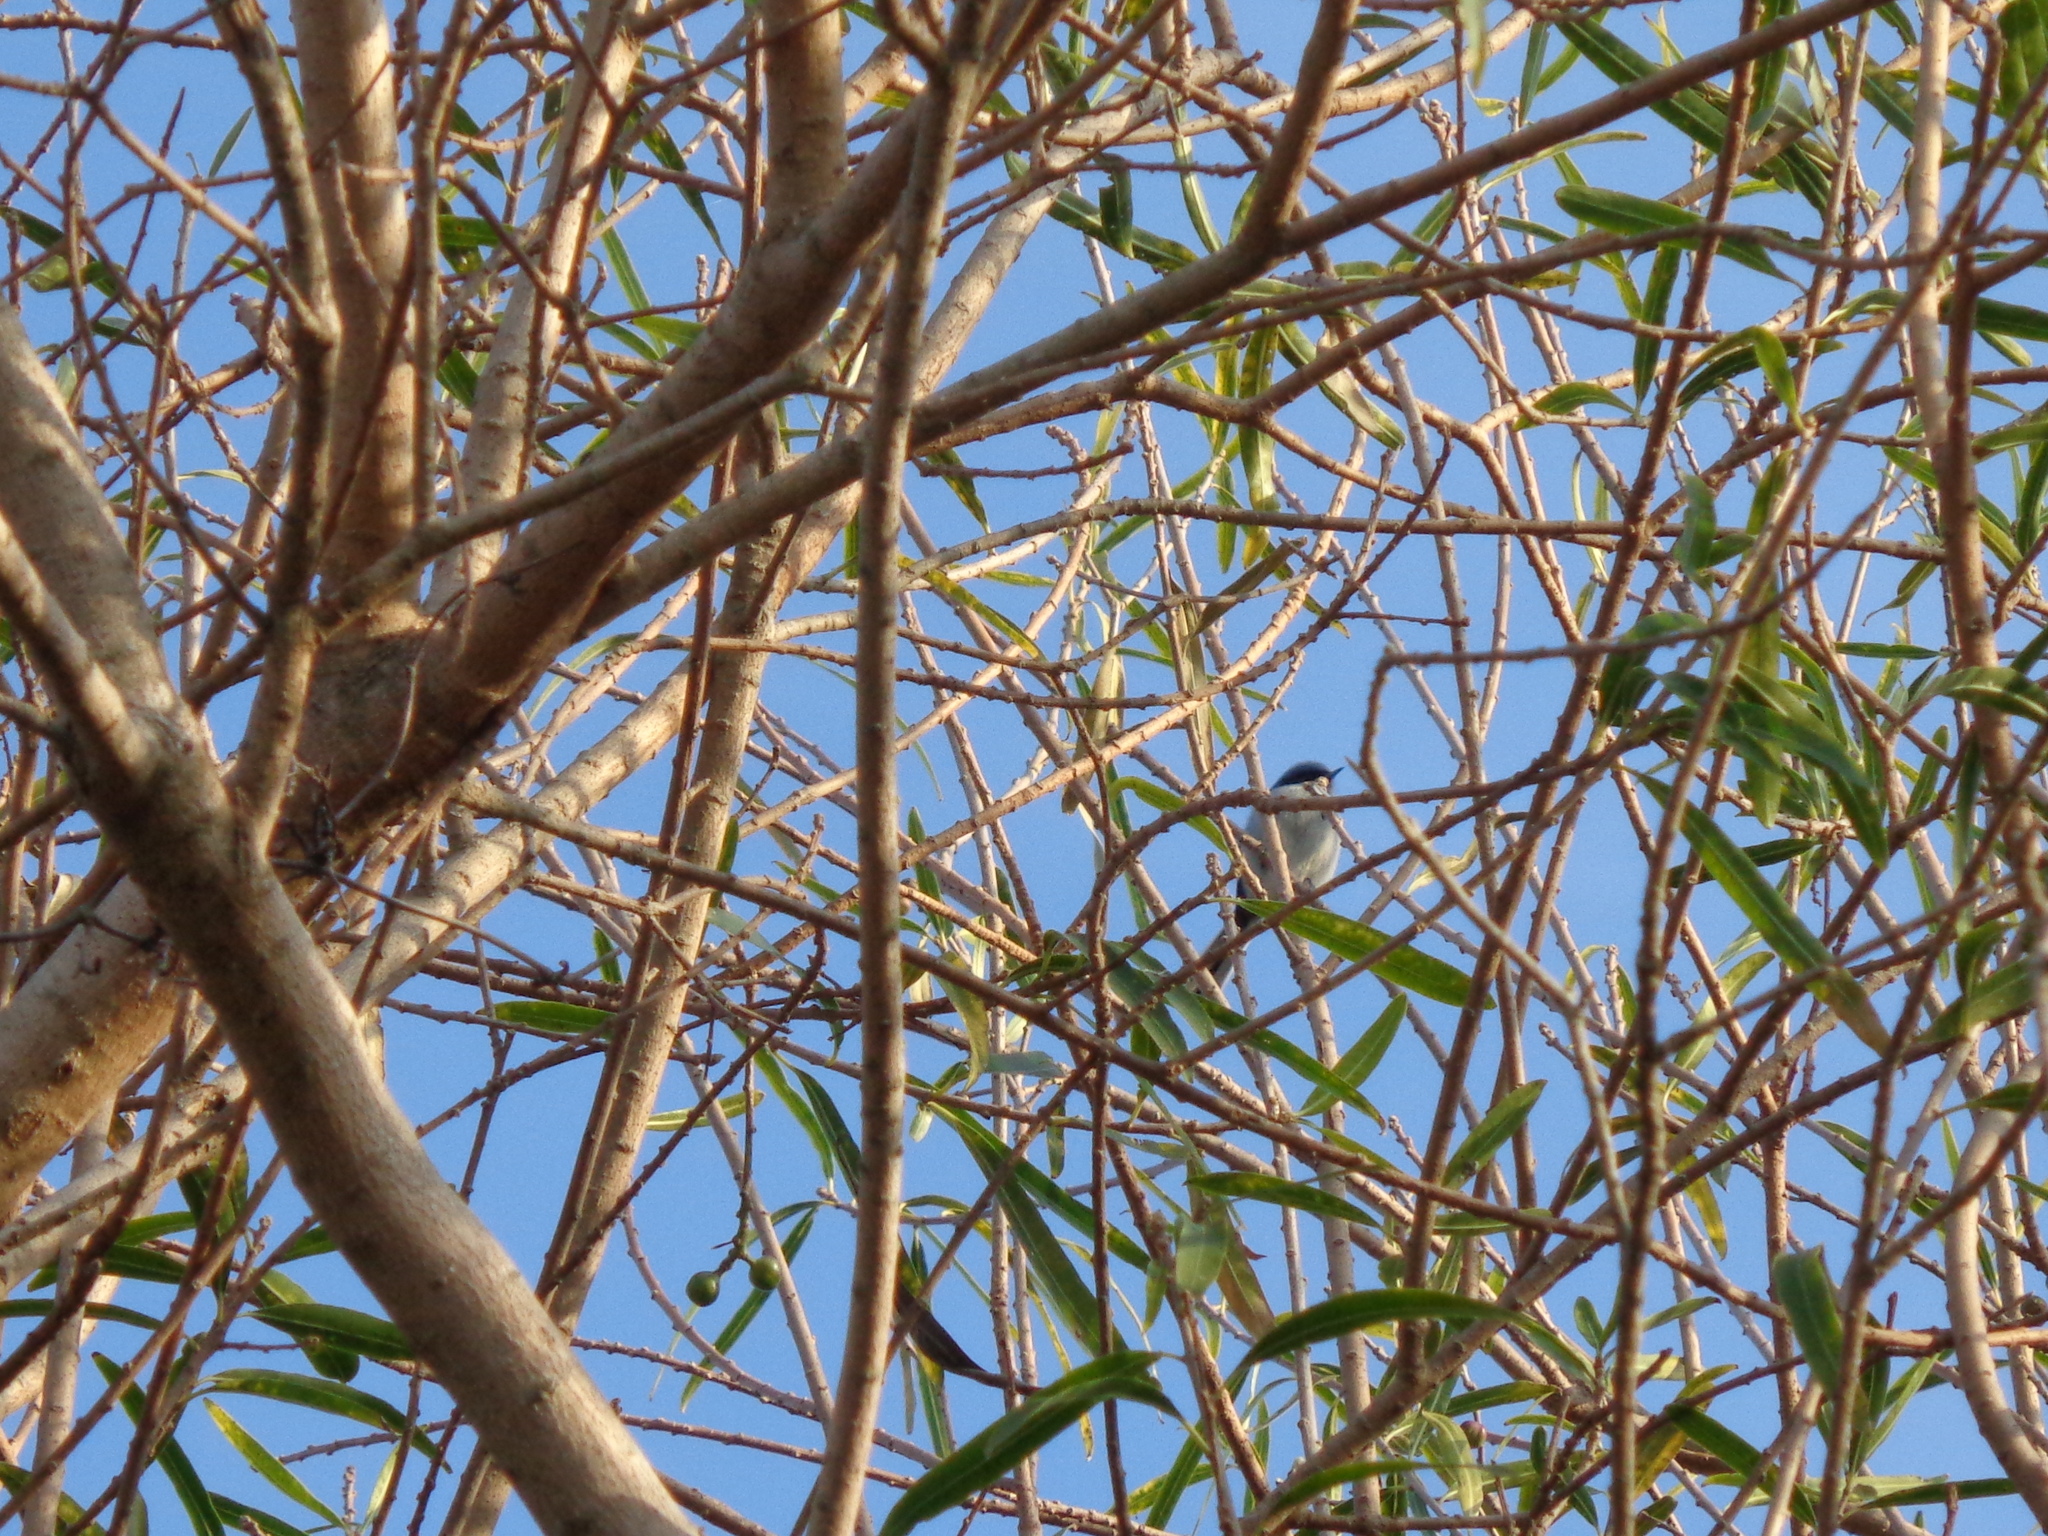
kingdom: Animalia
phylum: Chordata
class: Aves
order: Passeriformes
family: Polioptilidae
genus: Polioptila
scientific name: Polioptila dumicola
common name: Masked gnatcatcher
